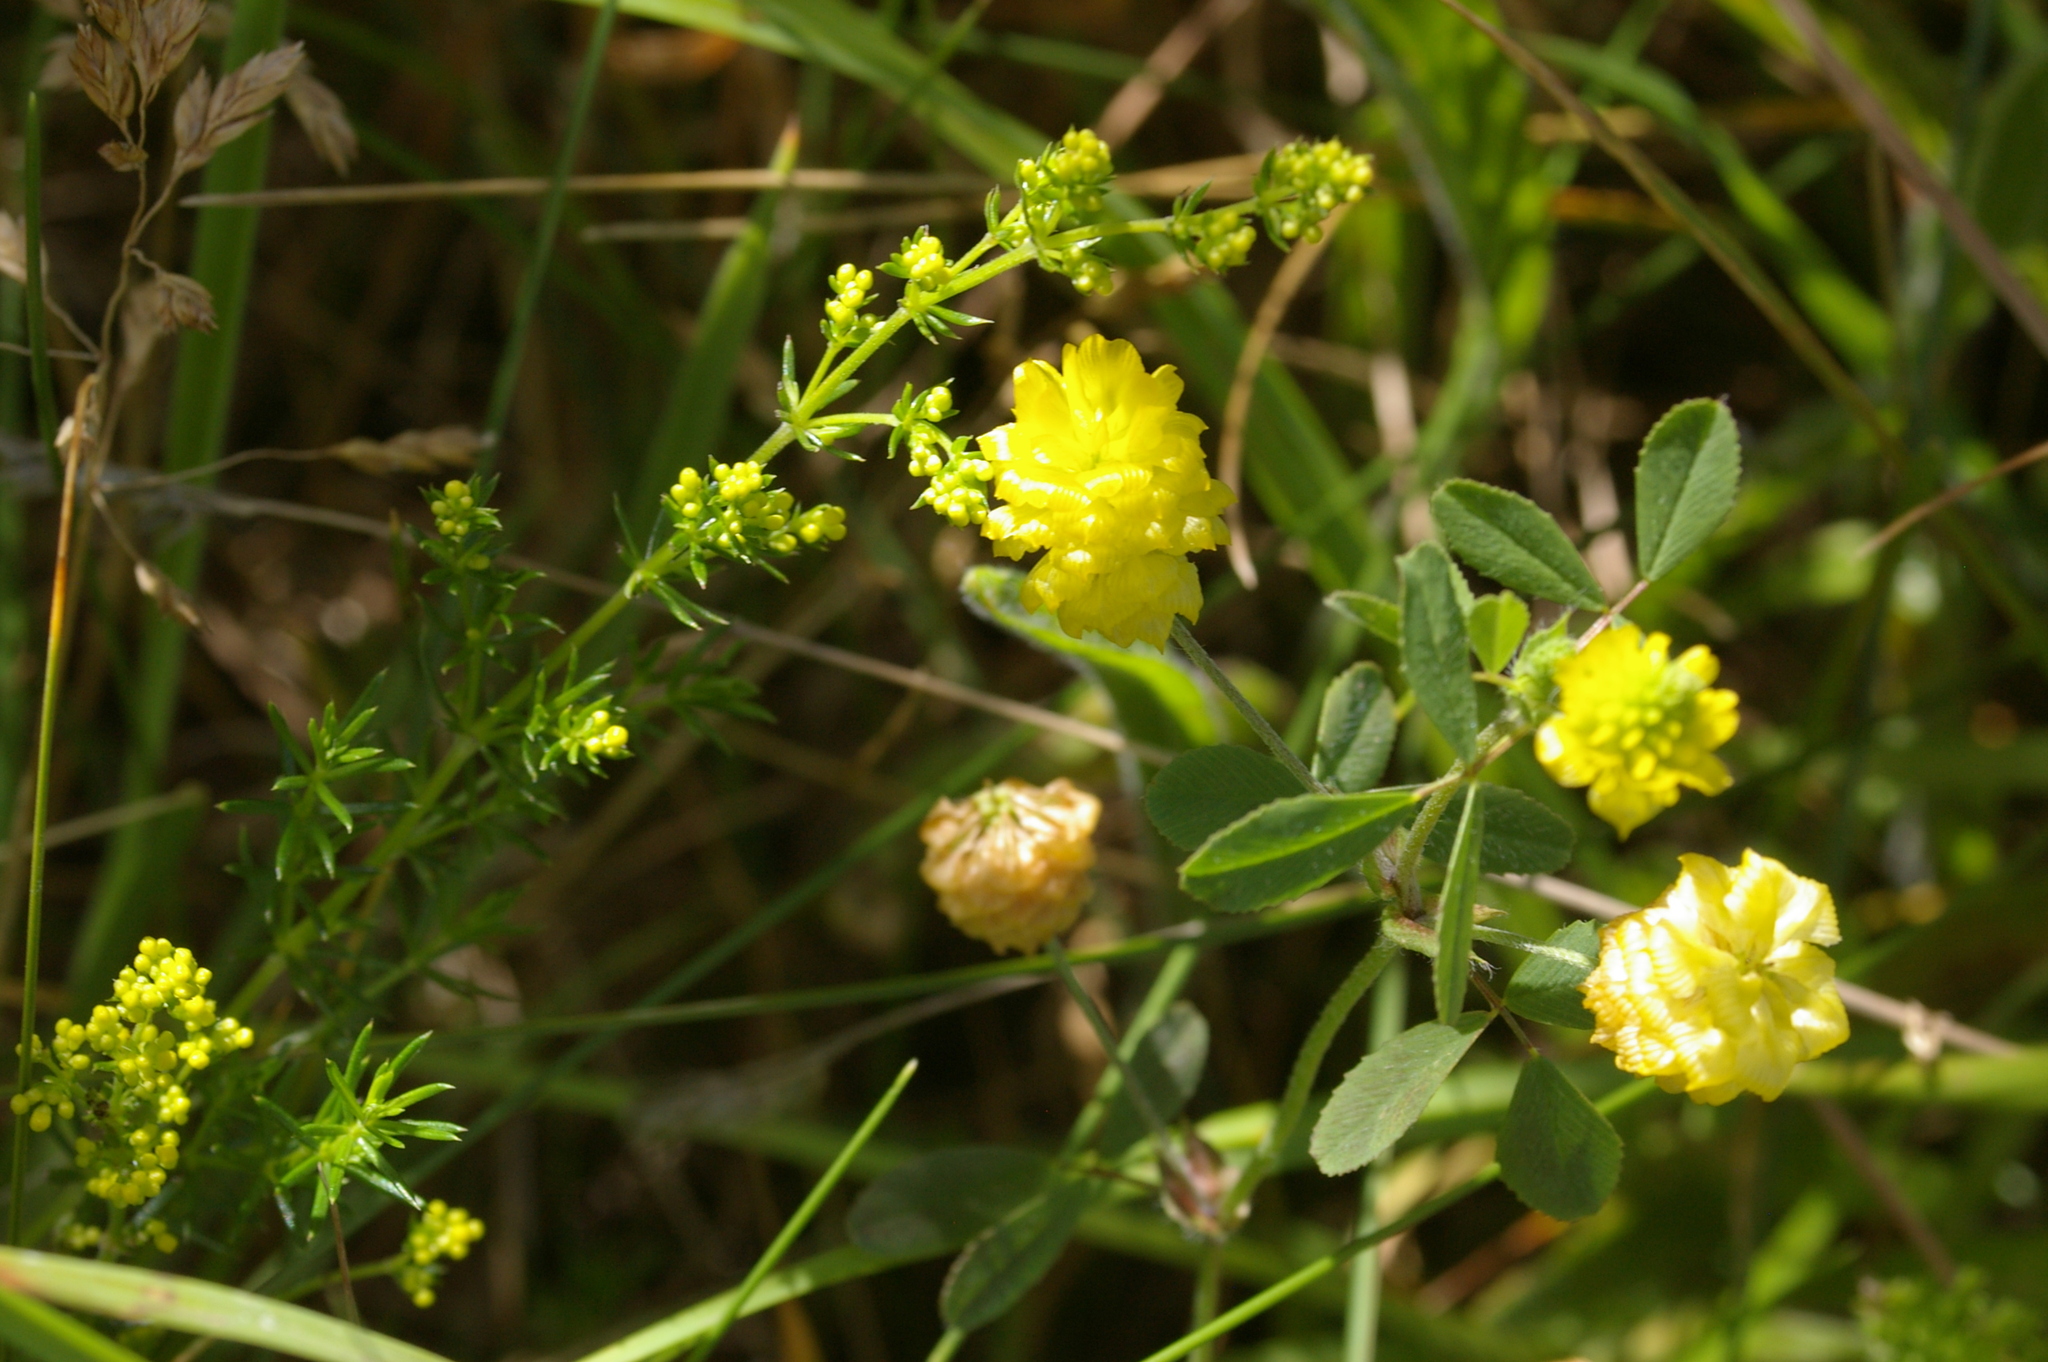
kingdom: Plantae
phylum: Tracheophyta
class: Magnoliopsida
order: Fabales
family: Fabaceae
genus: Trifolium
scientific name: Trifolium campestre
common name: Field clover
